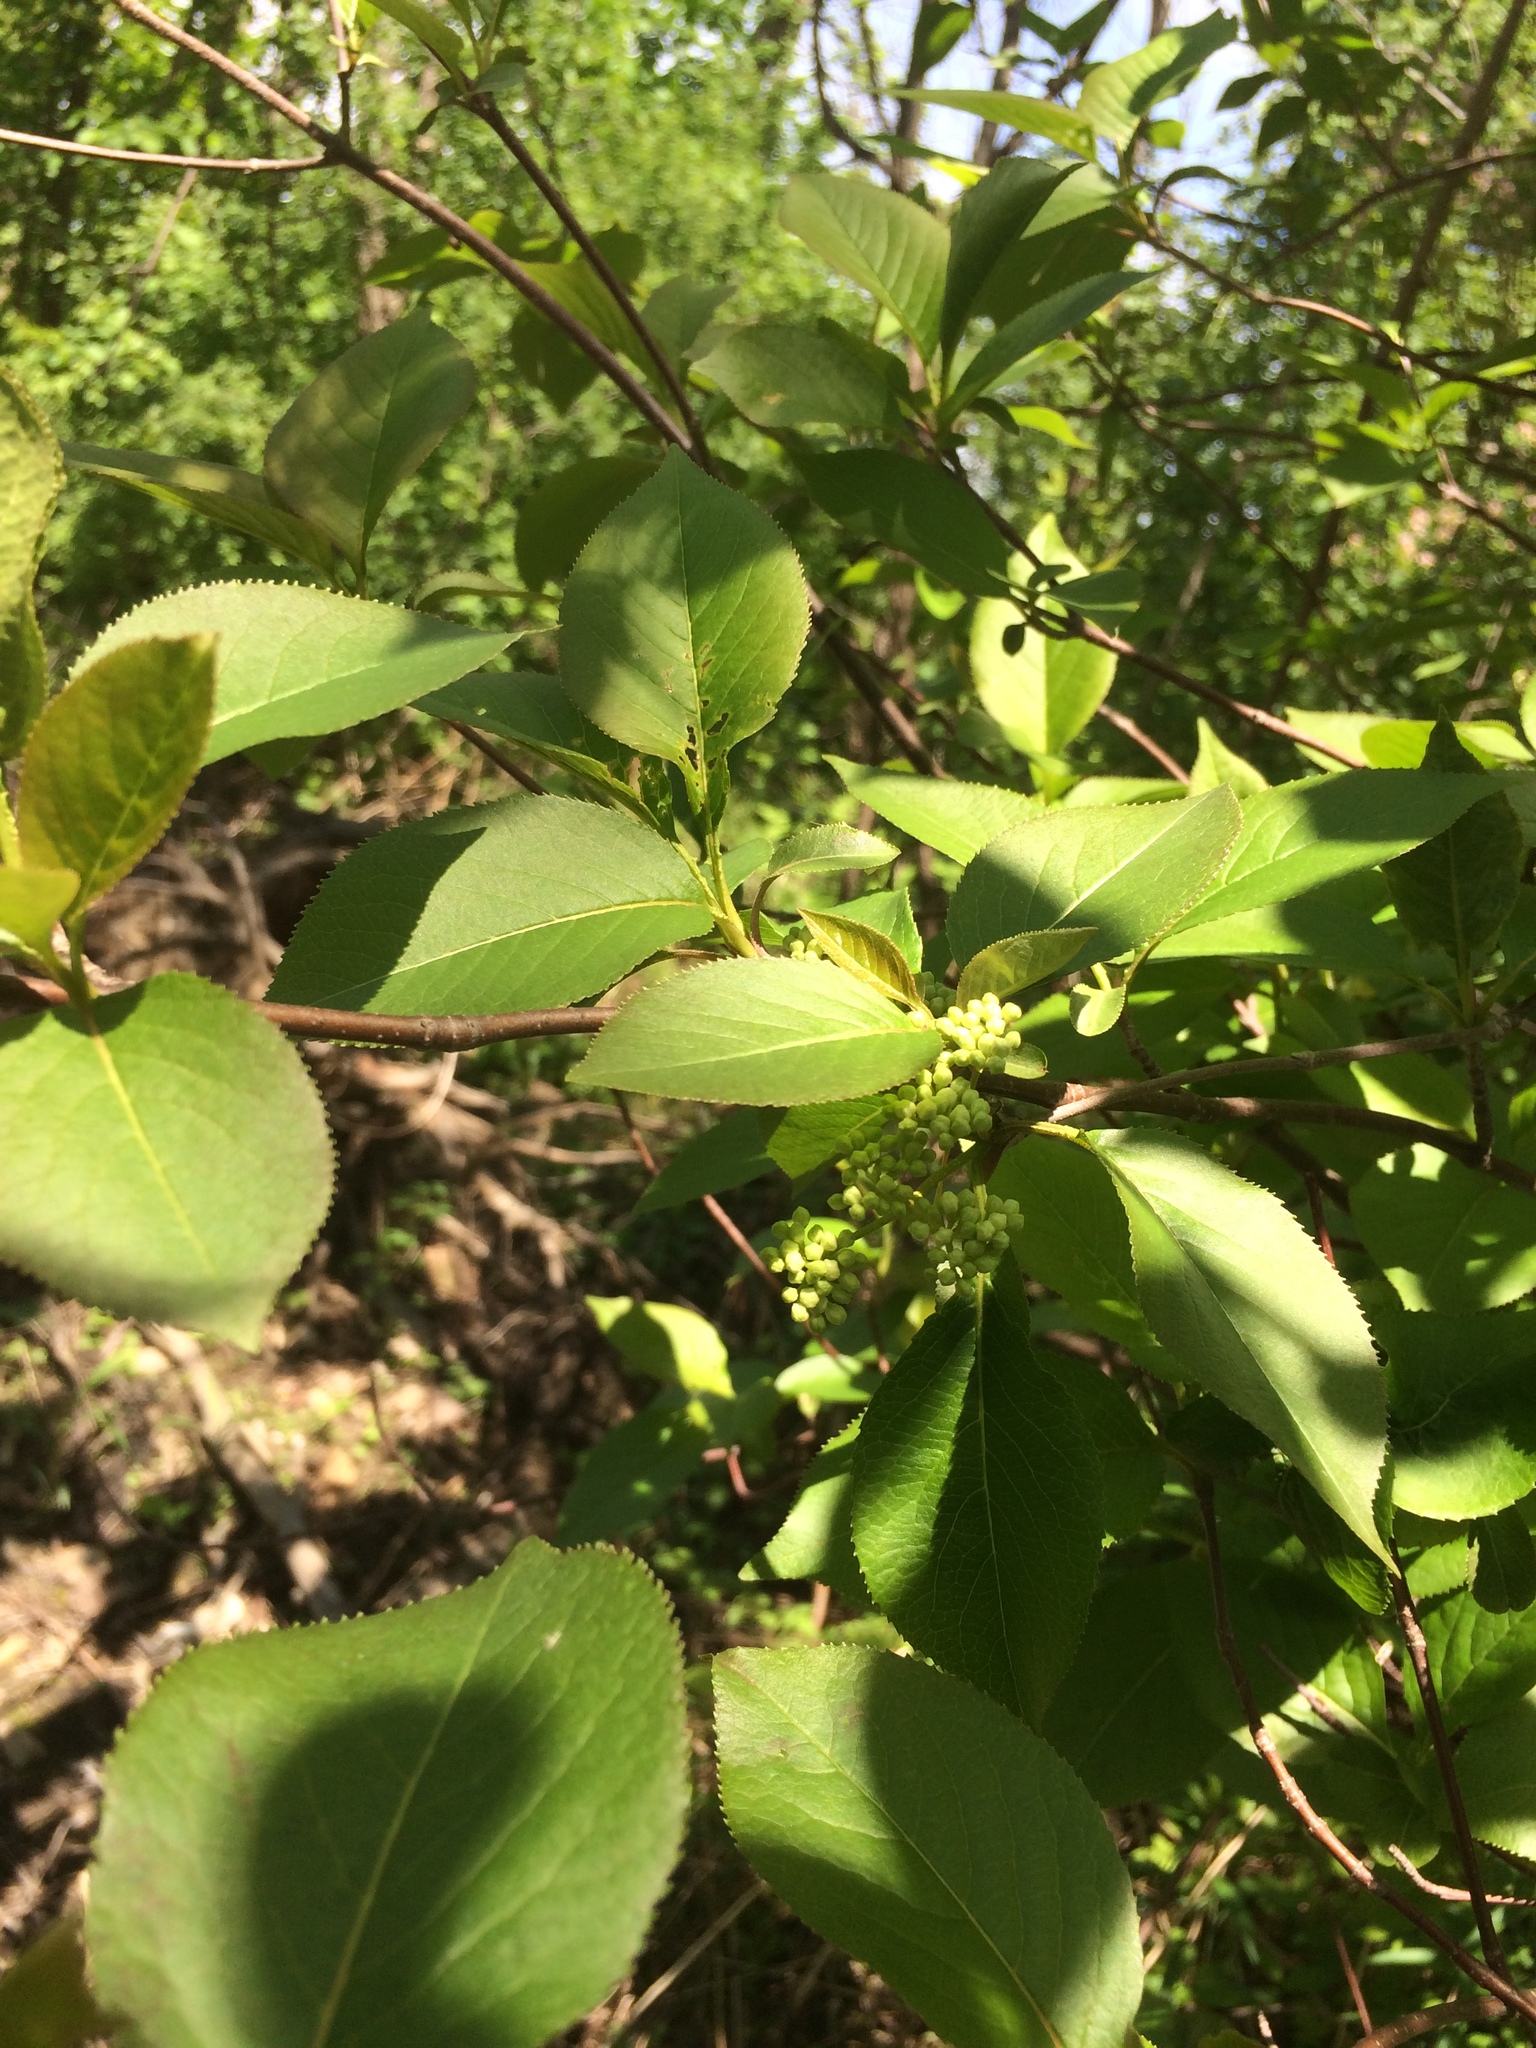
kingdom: Plantae
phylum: Tracheophyta
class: Magnoliopsida
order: Dipsacales
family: Viburnaceae
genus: Viburnum
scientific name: Viburnum lentago
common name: Black haw
